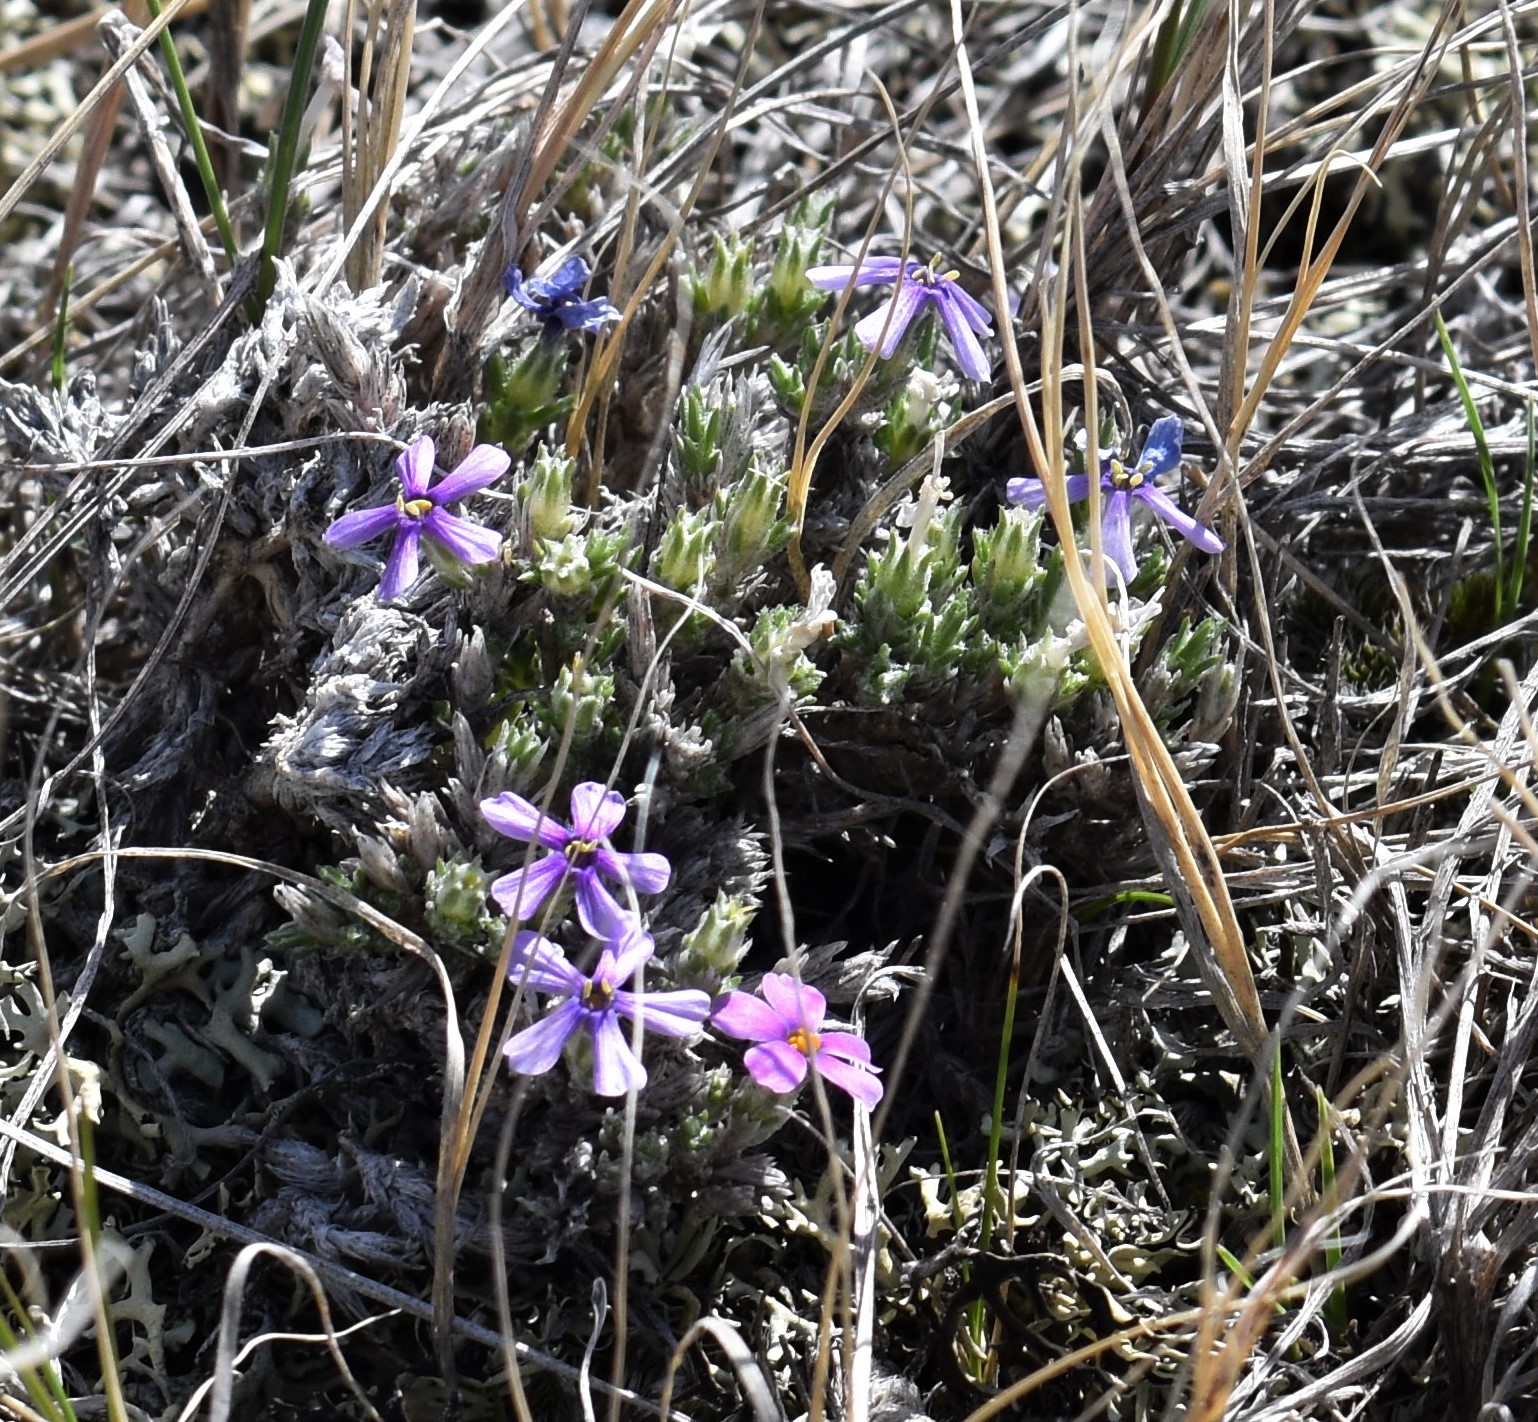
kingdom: Plantae
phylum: Tracheophyta
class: Magnoliopsida
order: Ericales
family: Polemoniaceae
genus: Phlox
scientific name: Phlox hoodii
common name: Moss phlox
